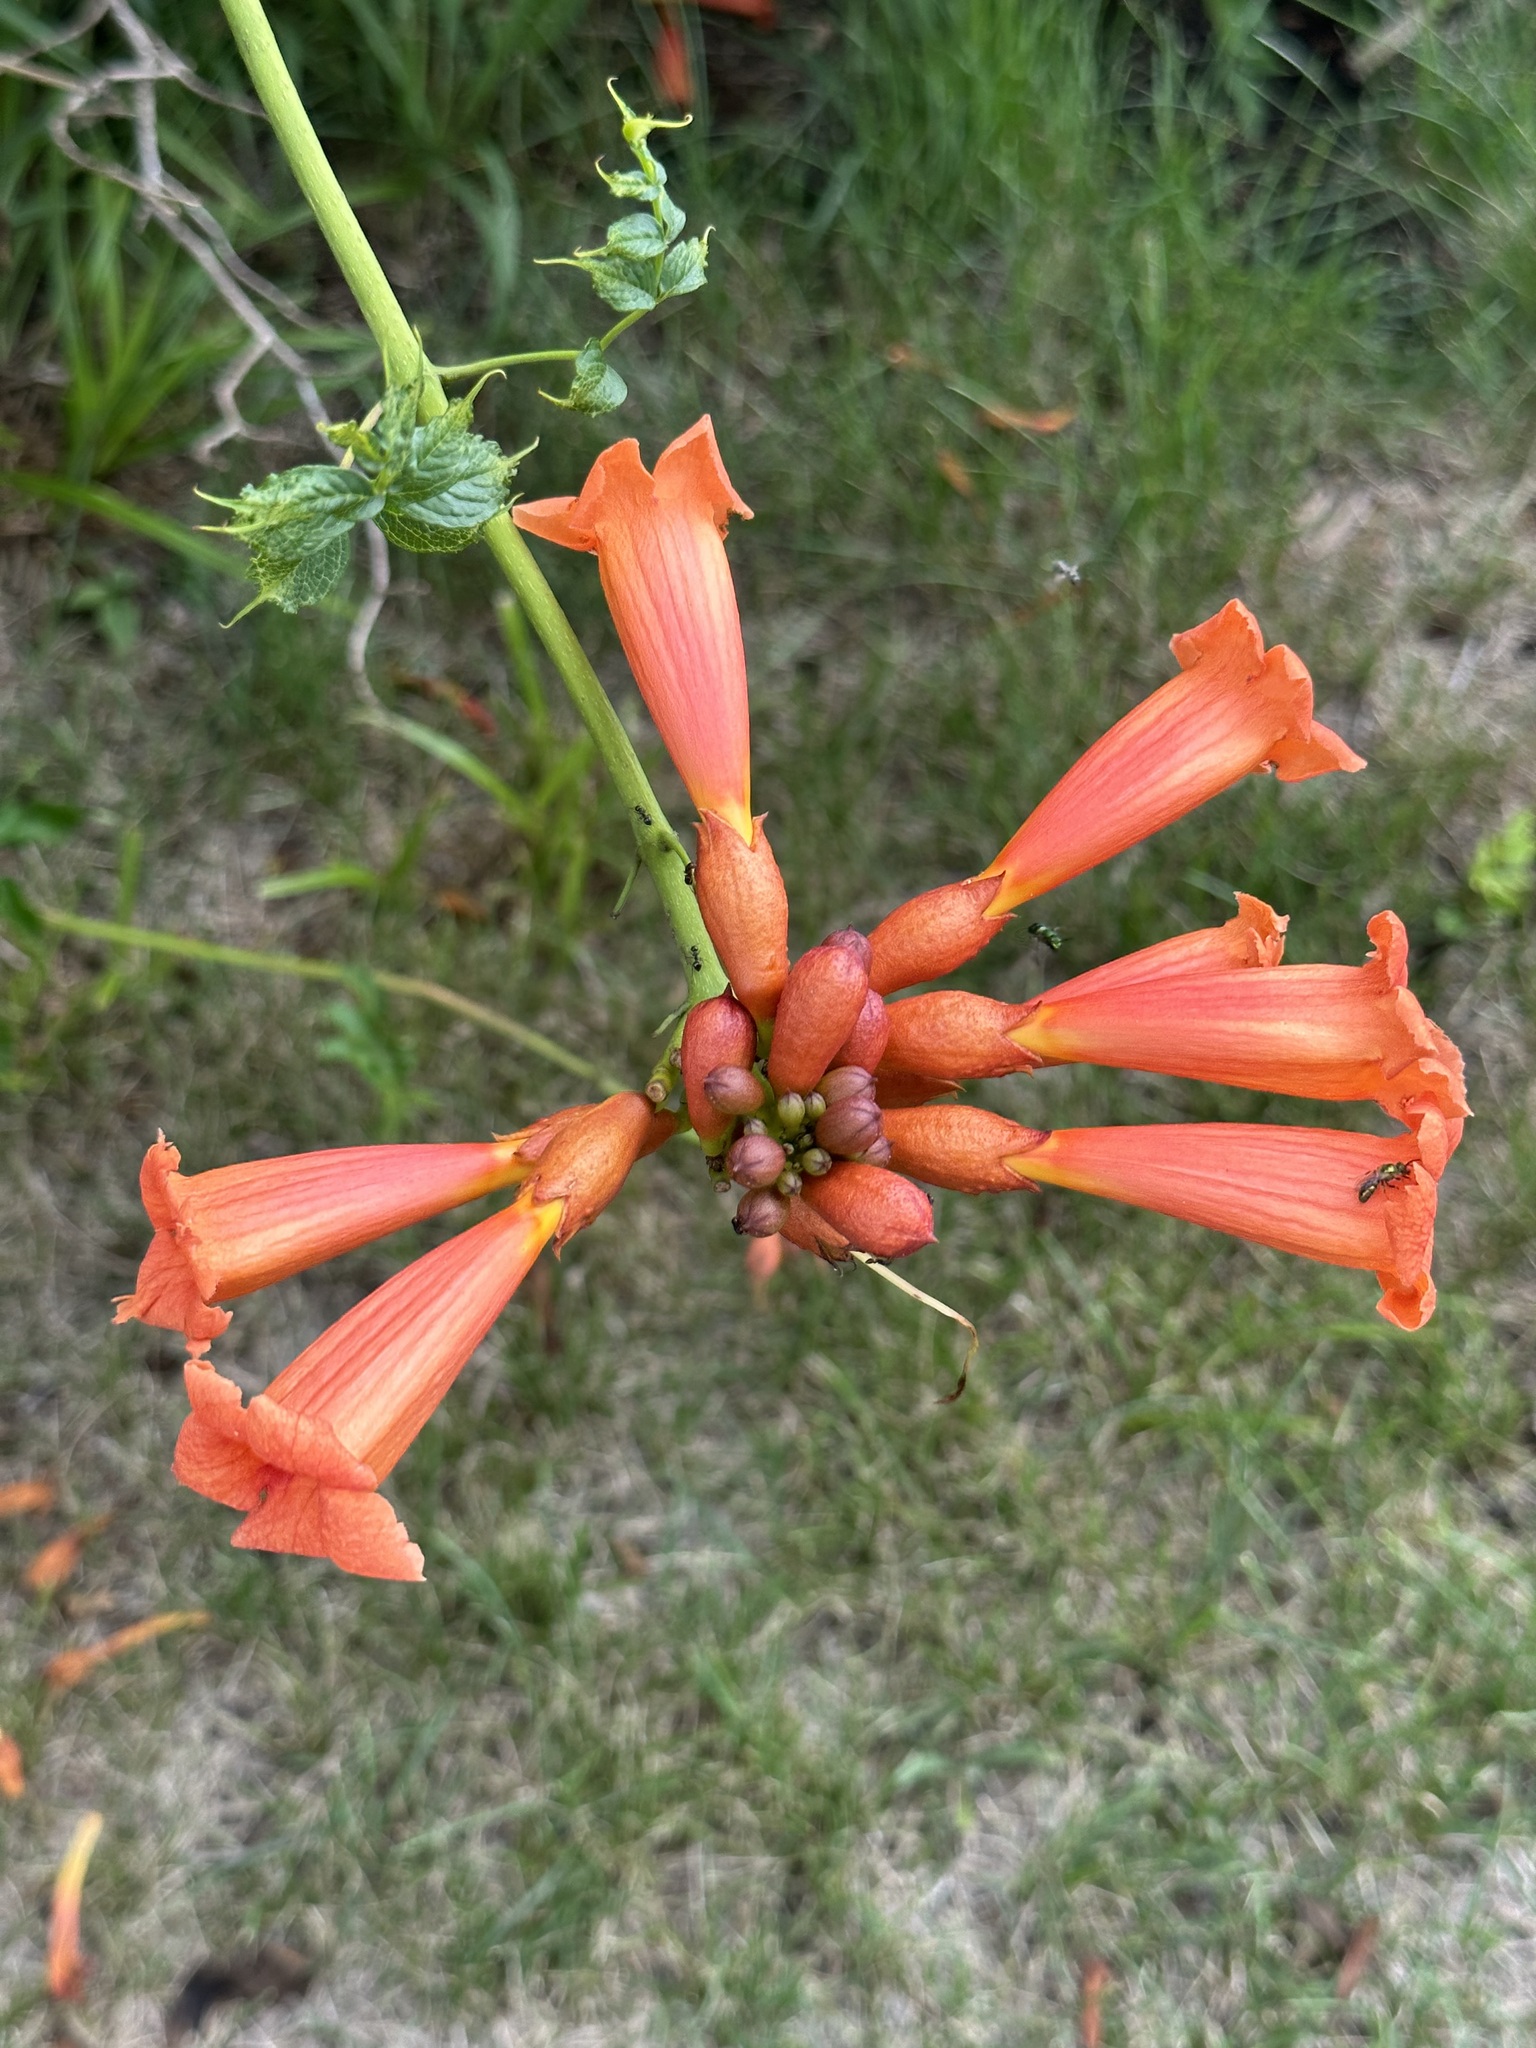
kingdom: Plantae
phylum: Tracheophyta
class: Magnoliopsida
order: Lamiales
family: Bignoniaceae
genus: Campsis
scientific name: Campsis radicans
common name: Trumpet-creeper
